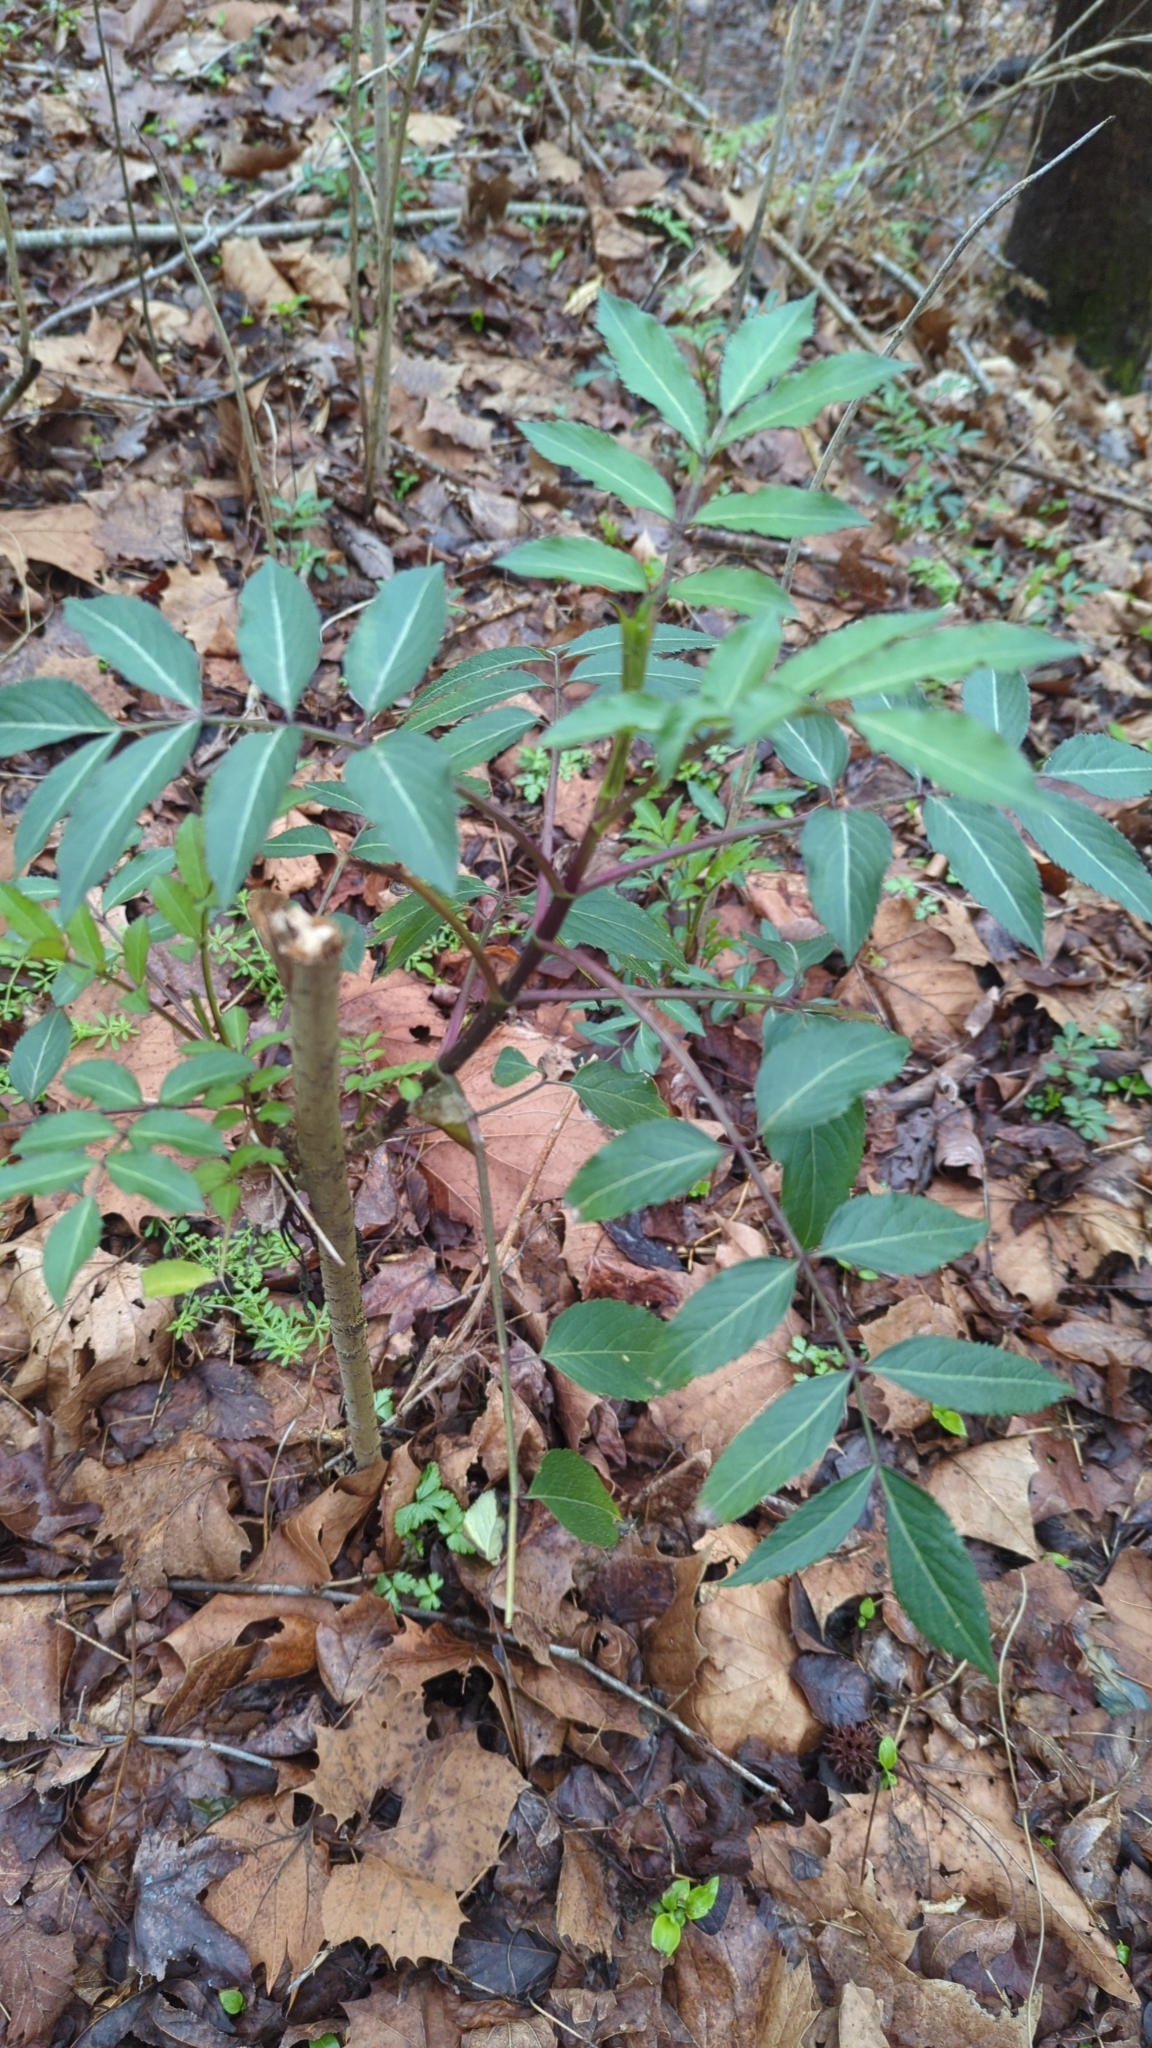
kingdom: Plantae
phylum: Tracheophyta
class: Magnoliopsida
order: Dipsacales
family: Viburnaceae
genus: Sambucus
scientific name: Sambucus canadensis
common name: American elder
